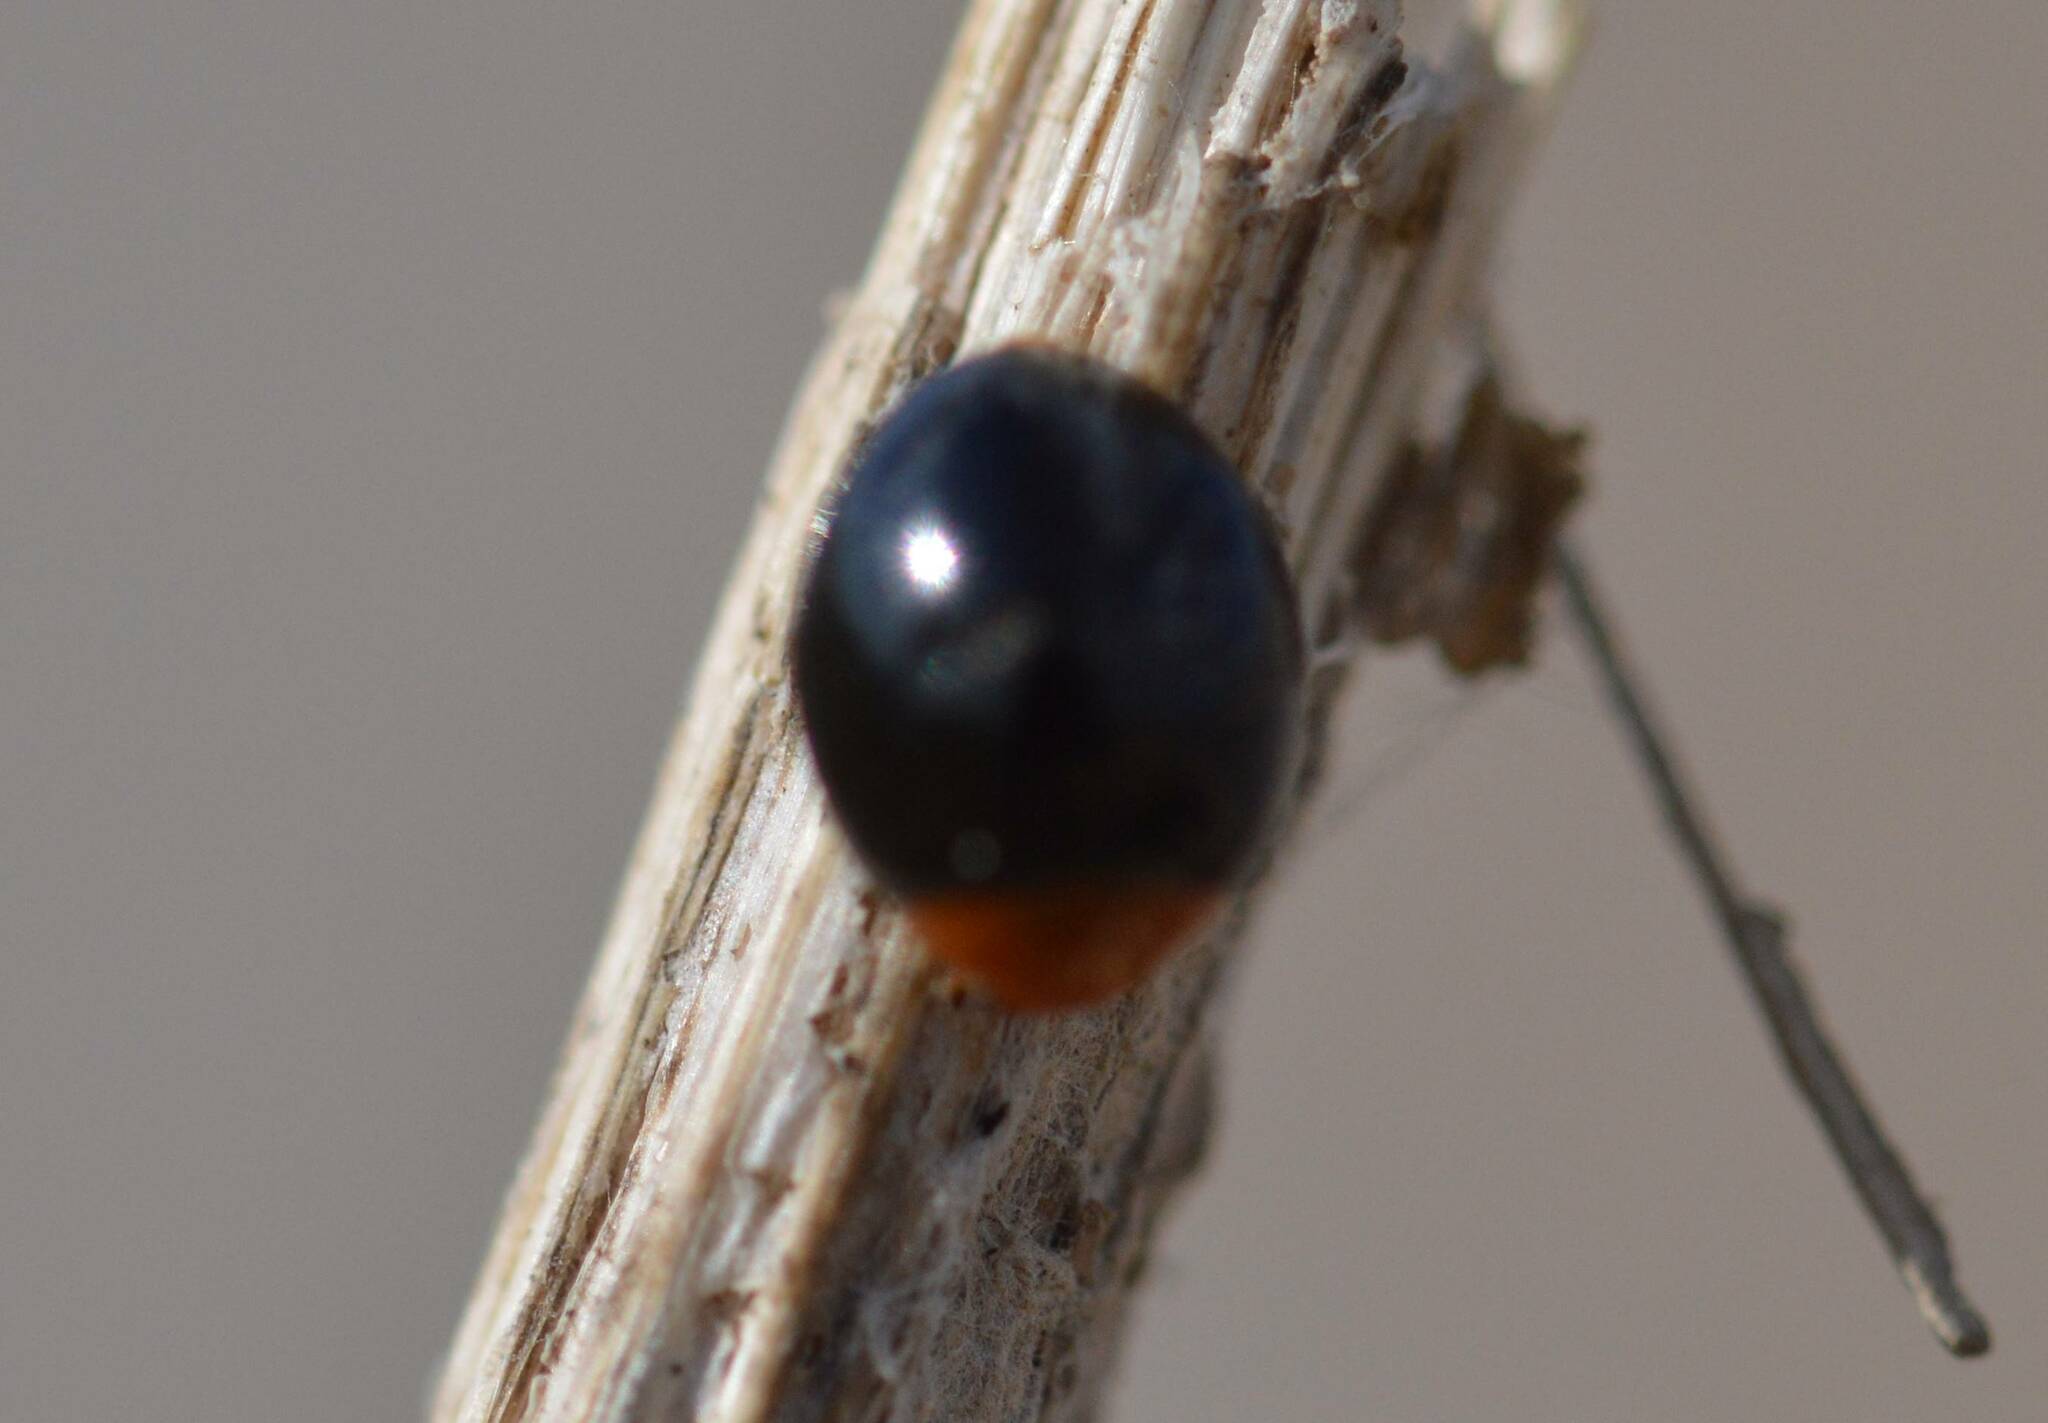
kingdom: Animalia
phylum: Arthropoda
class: Insecta
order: Coleoptera
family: Coccinellidae
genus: Exochomus
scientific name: Exochomus nigripennis
